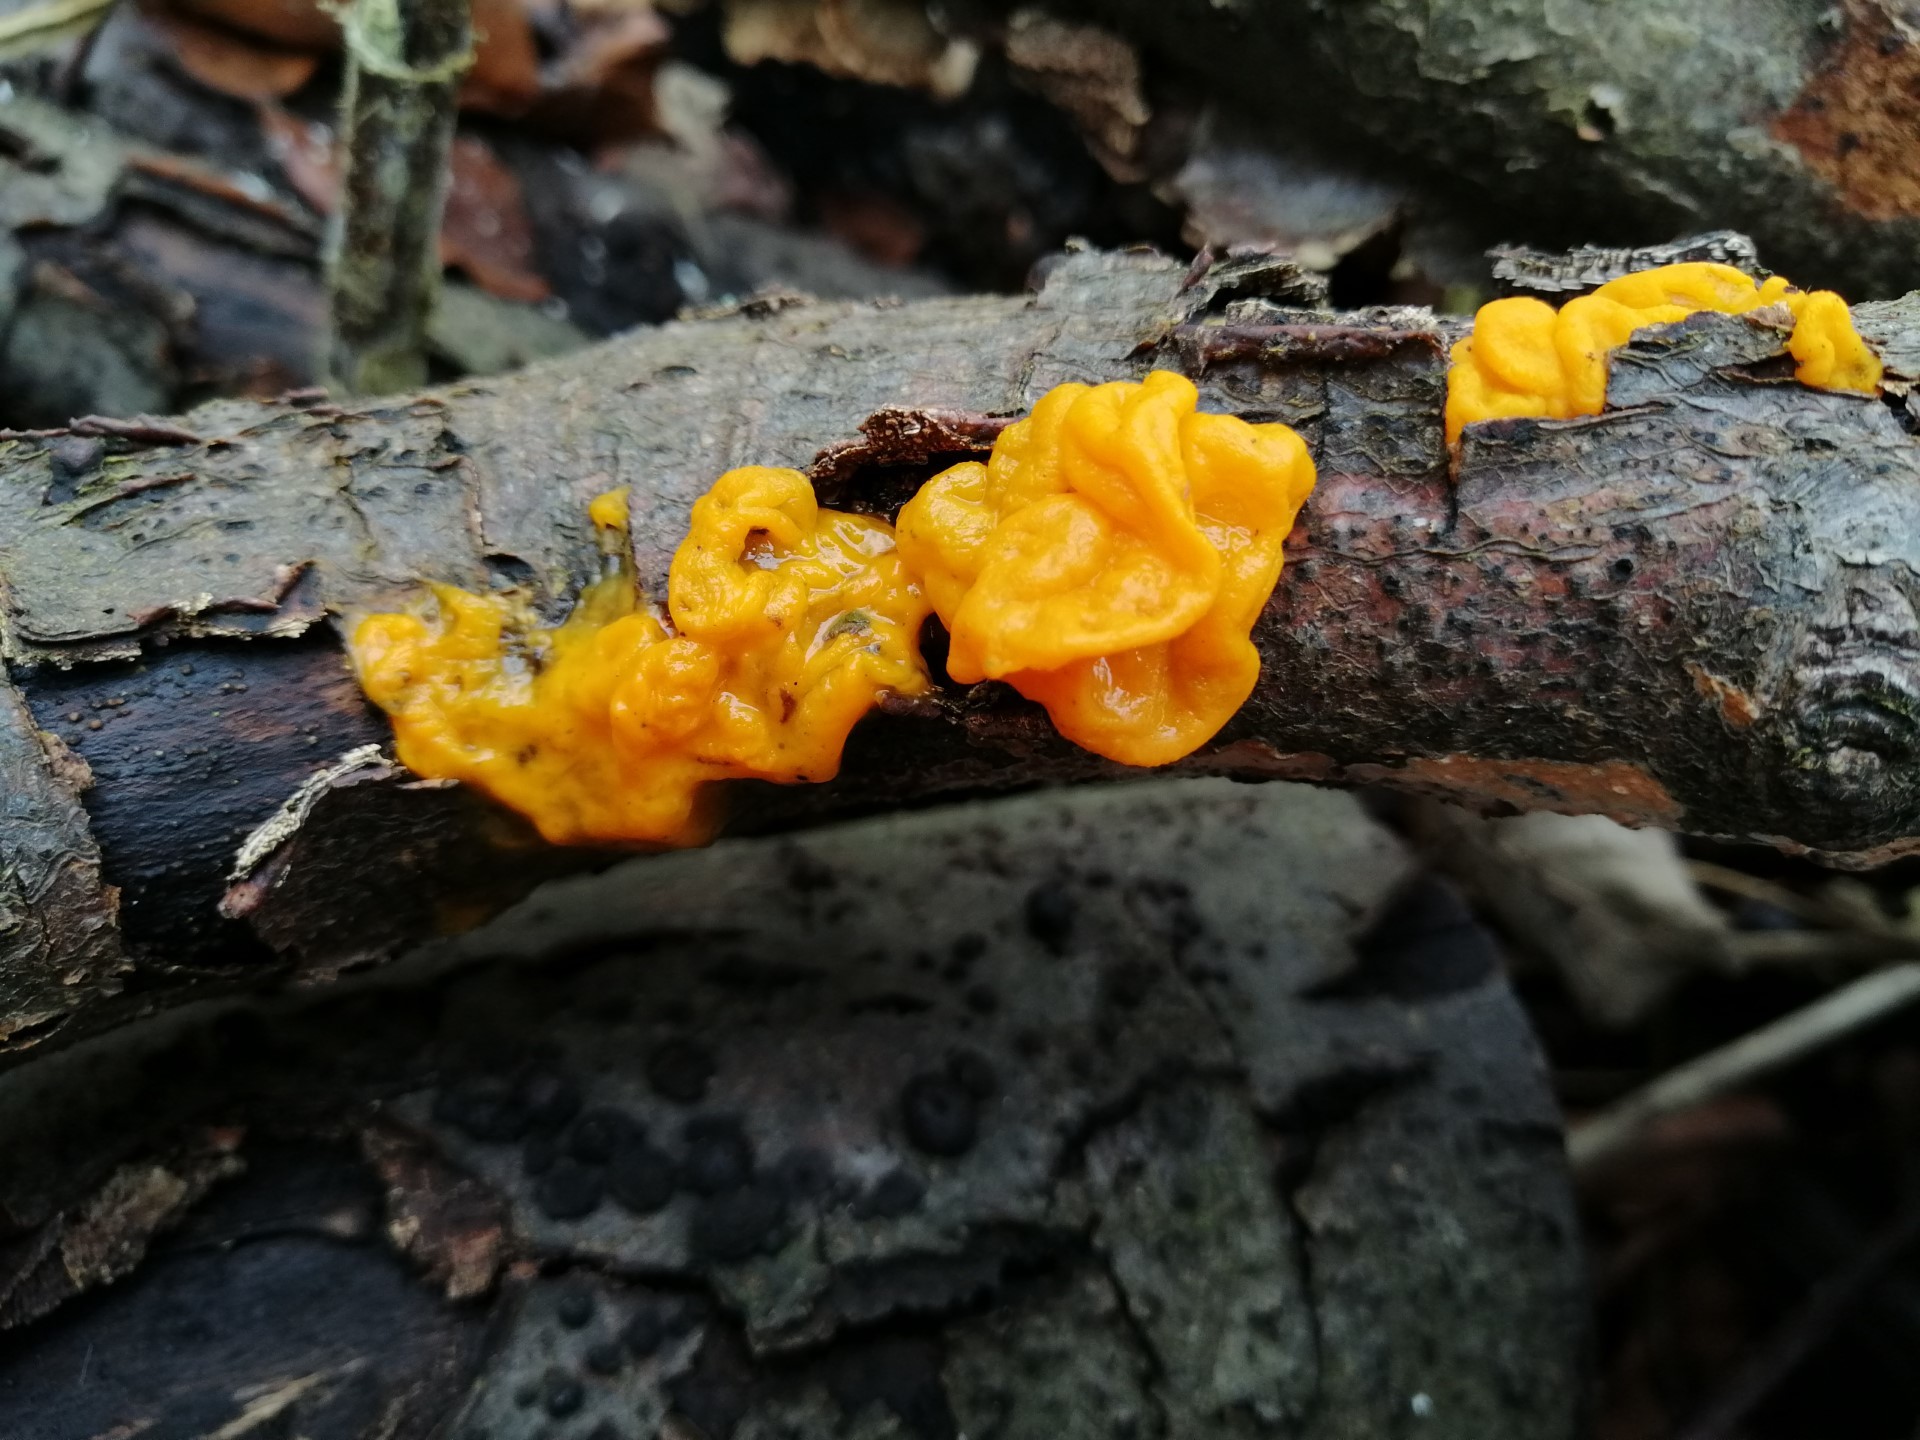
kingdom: Fungi
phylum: Basidiomycota
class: Tremellomycetes
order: Tremellales
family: Tremellaceae
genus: Tremella
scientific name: Tremella mesenterica
